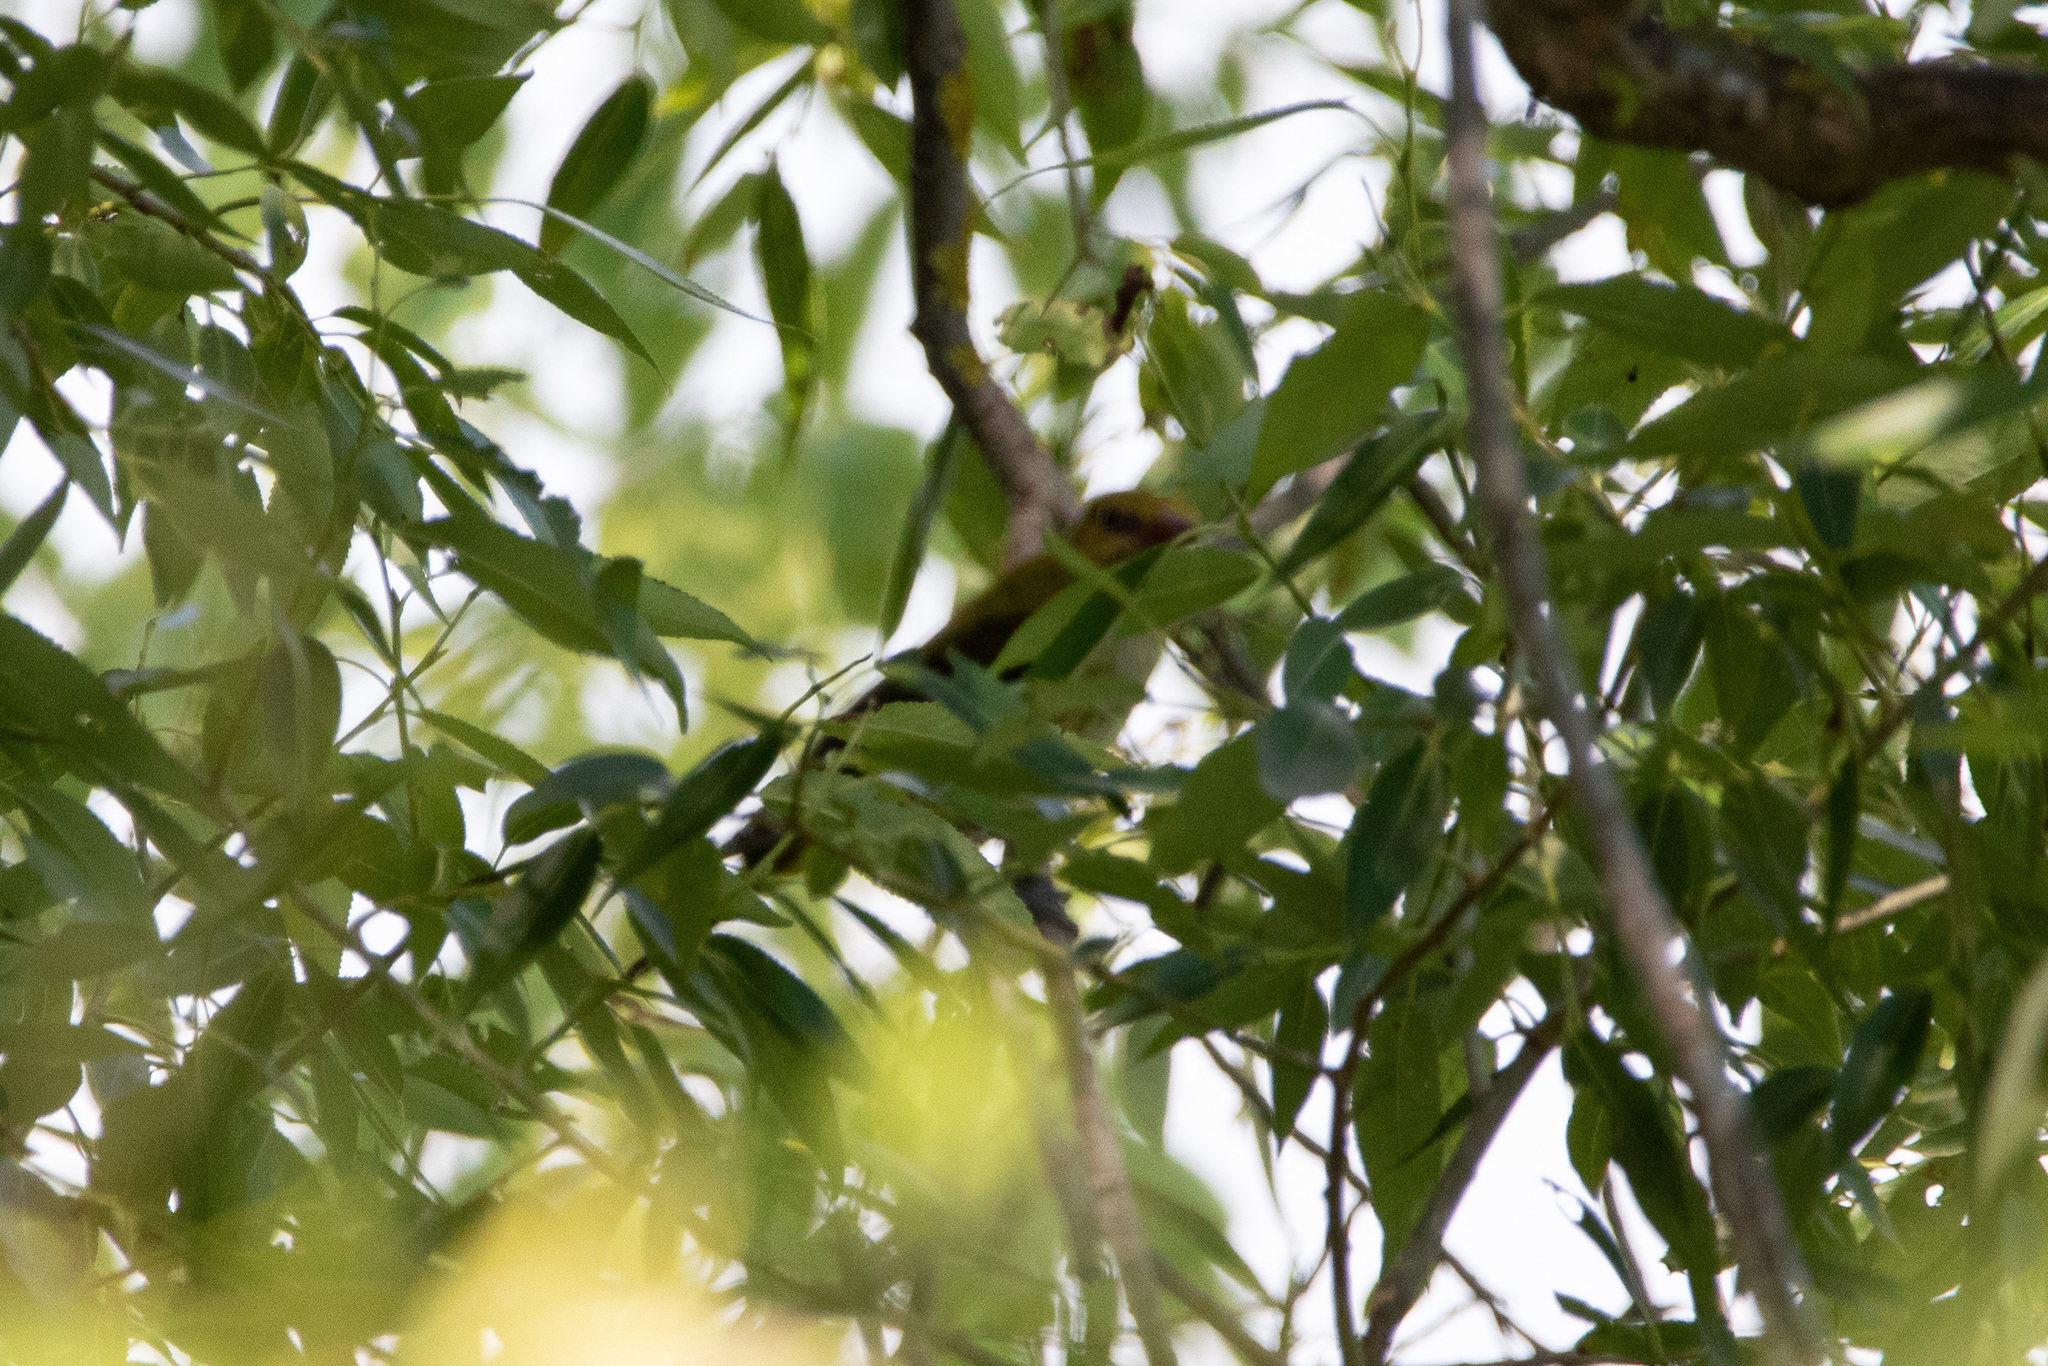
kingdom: Animalia
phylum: Chordata
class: Aves
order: Passeriformes
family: Oriolidae
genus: Oriolus
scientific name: Oriolus oriolus
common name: Eurasian golden oriole
